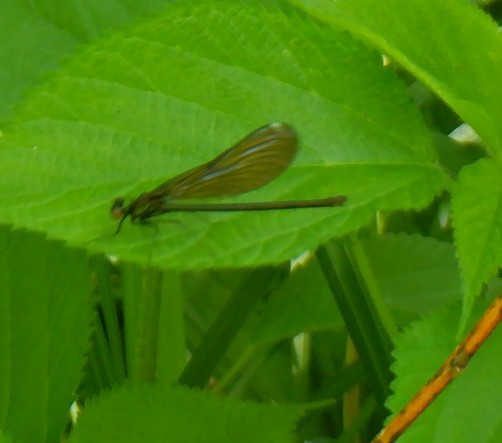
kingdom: Animalia
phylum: Arthropoda
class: Insecta
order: Odonata
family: Calopterygidae
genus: Calopteryx
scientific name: Calopteryx maculata
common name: Ebony jewelwing
